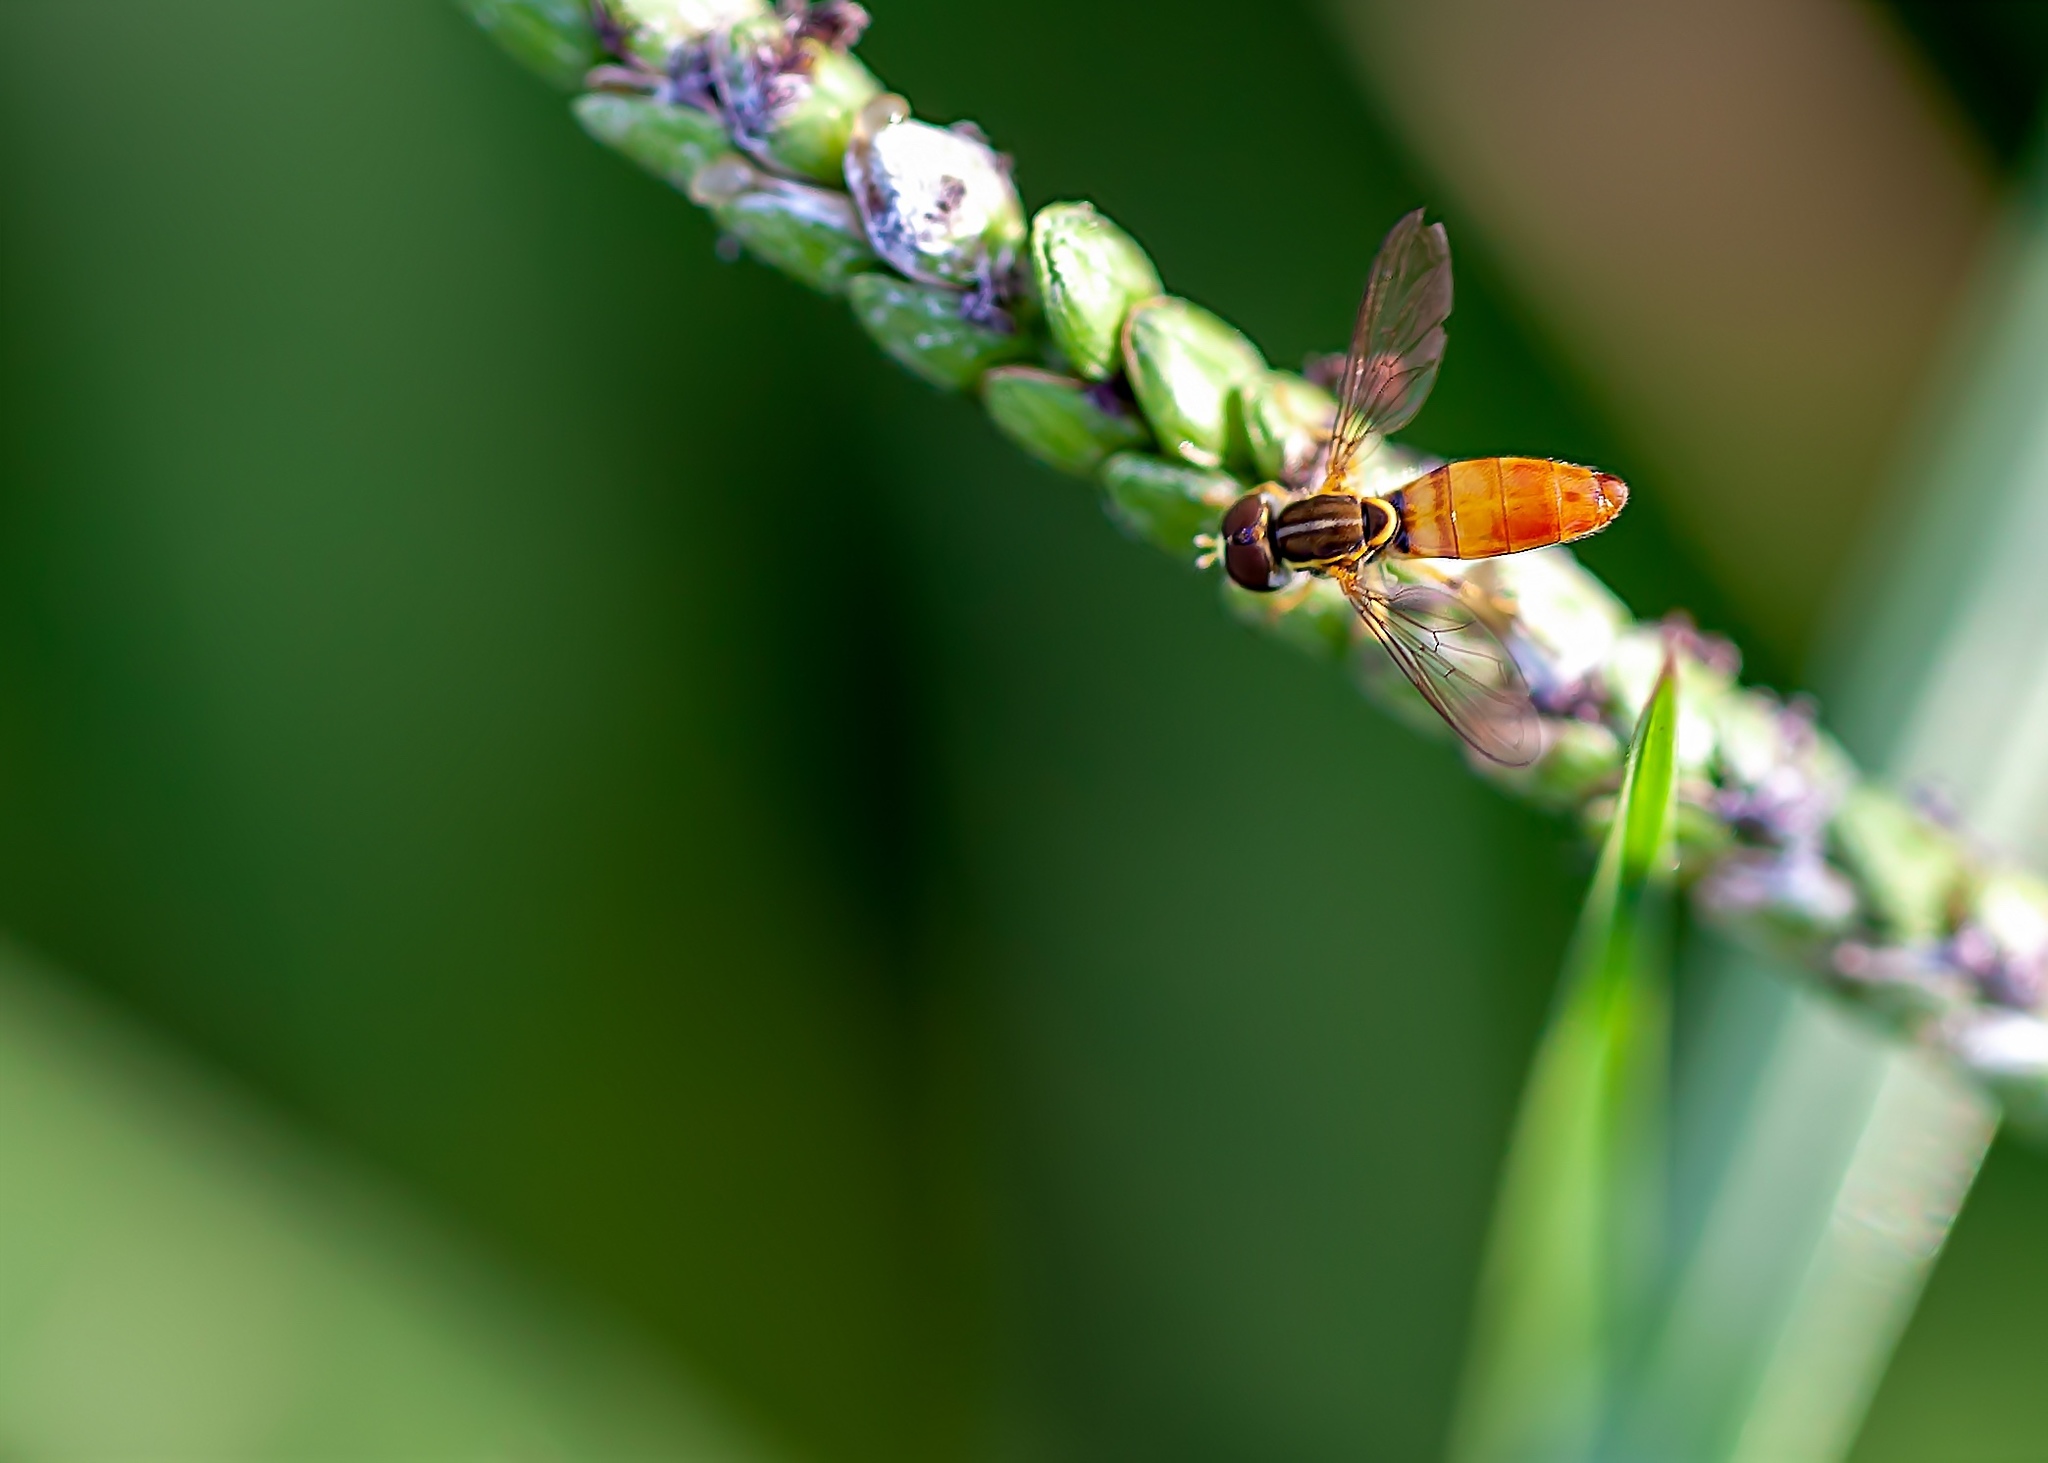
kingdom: Animalia
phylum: Arthropoda
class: Insecta
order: Diptera
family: Syrphidae
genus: Toxomerus
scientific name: Toxomerus floralis
